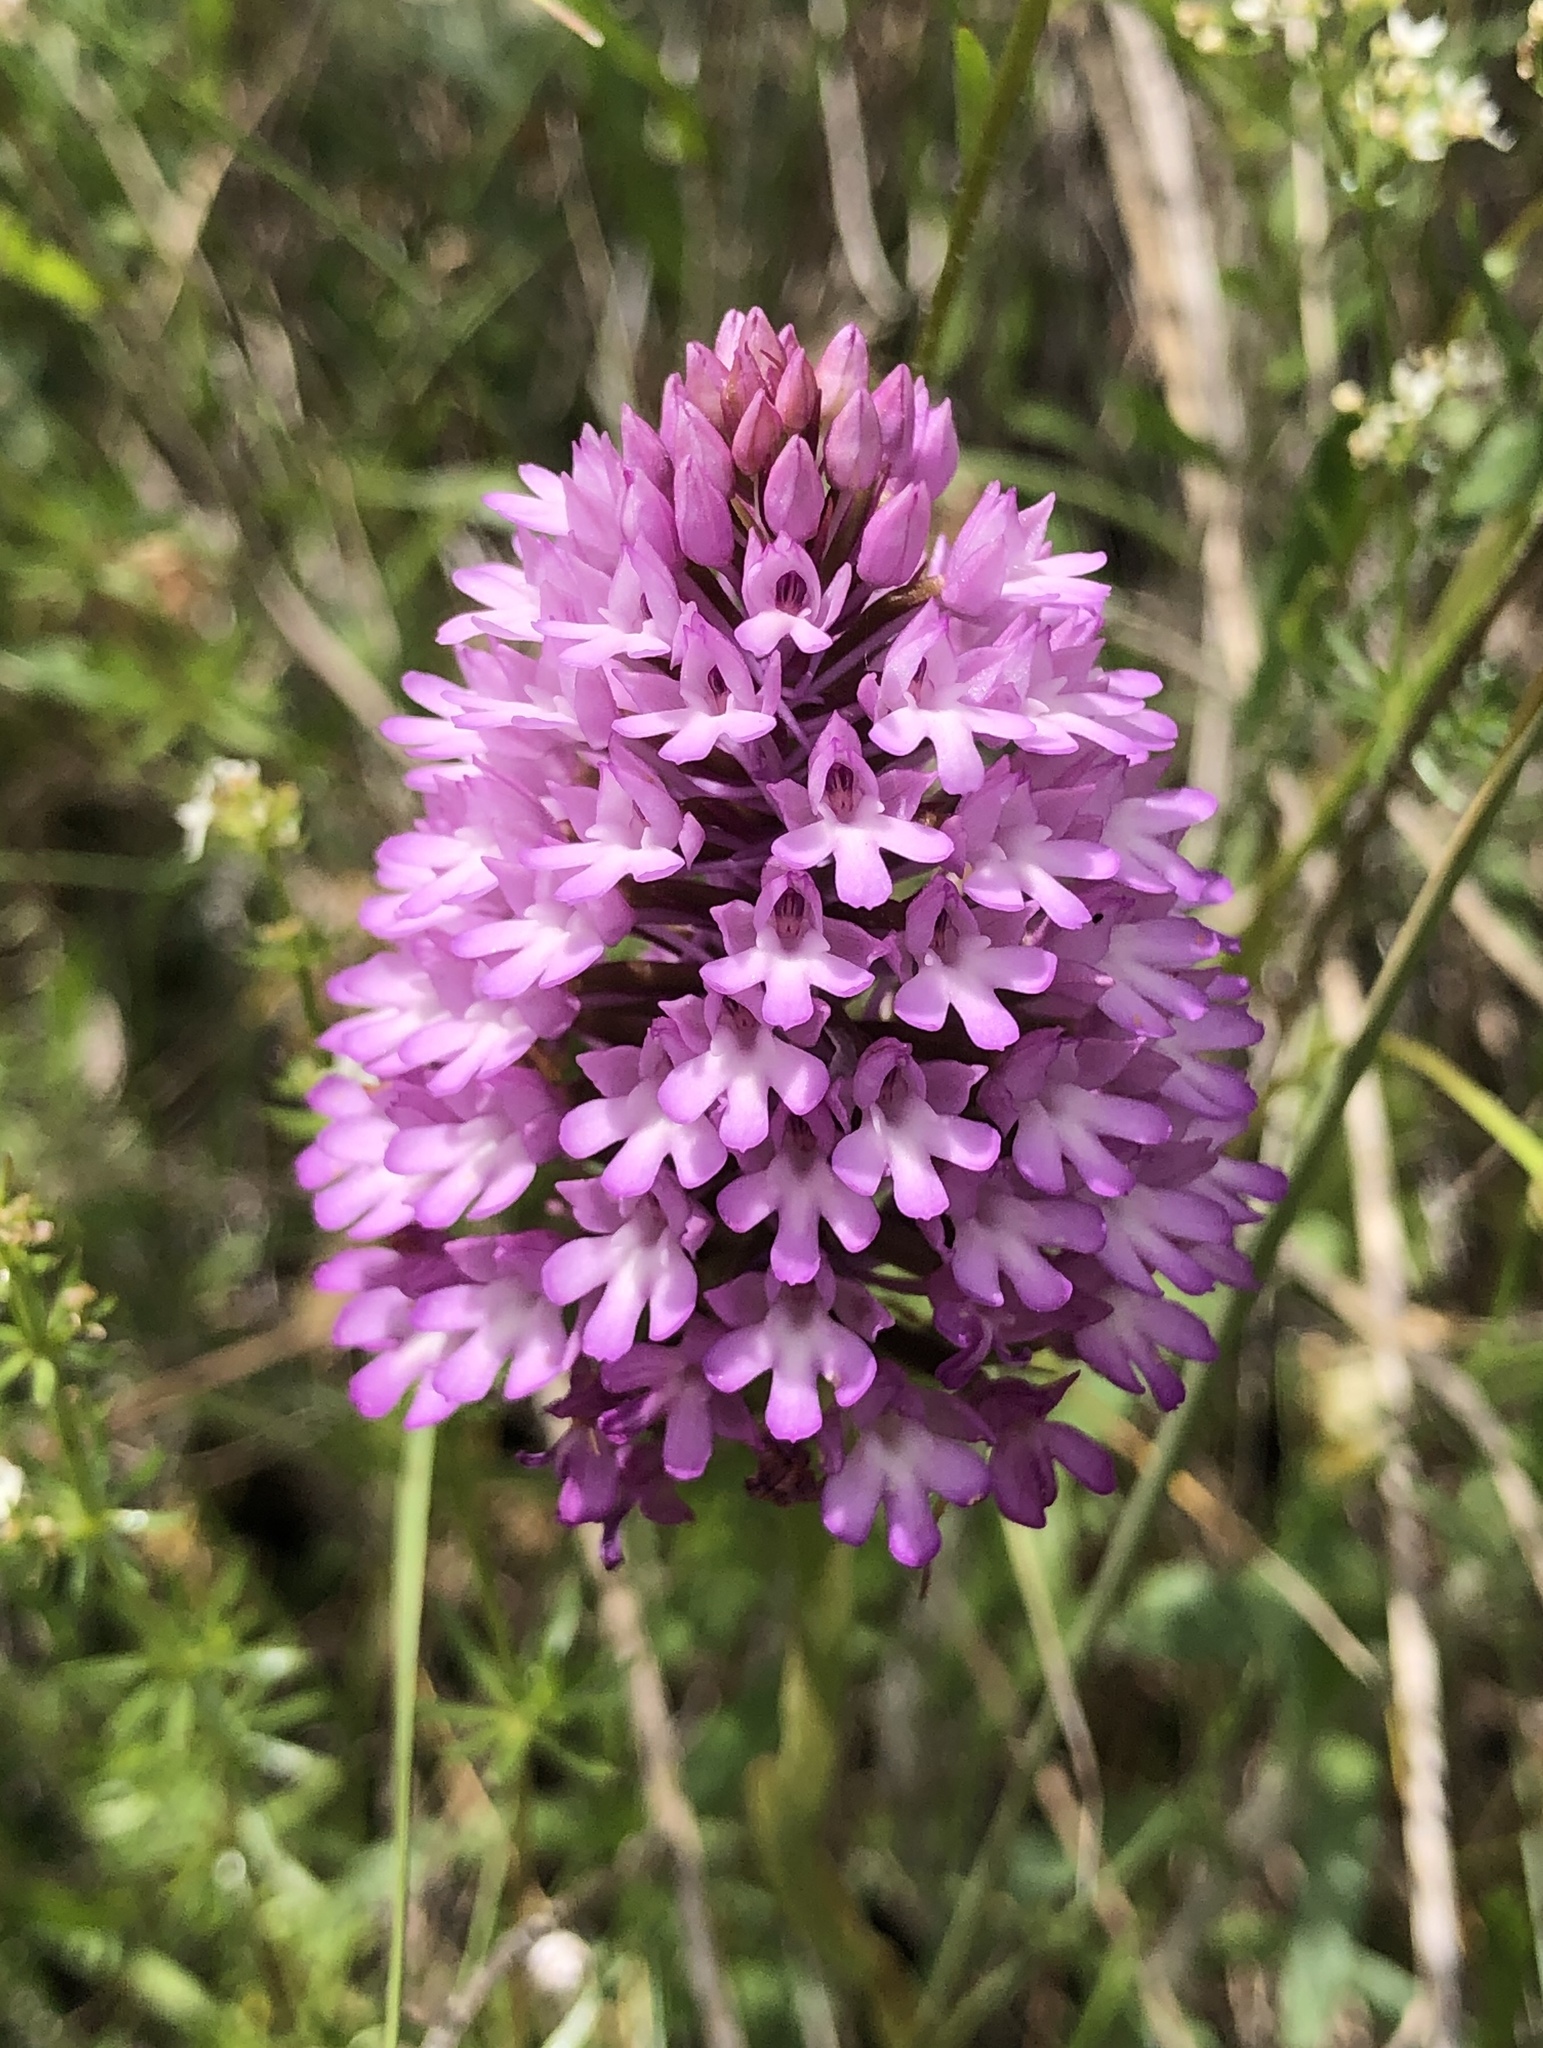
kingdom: Plantae
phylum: Tracheophyta
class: Liliopsida
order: Asparagales
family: Orchidaceae
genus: Anacamptis
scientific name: Anacamptis pyramidalis
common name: Pyramidal orchid
